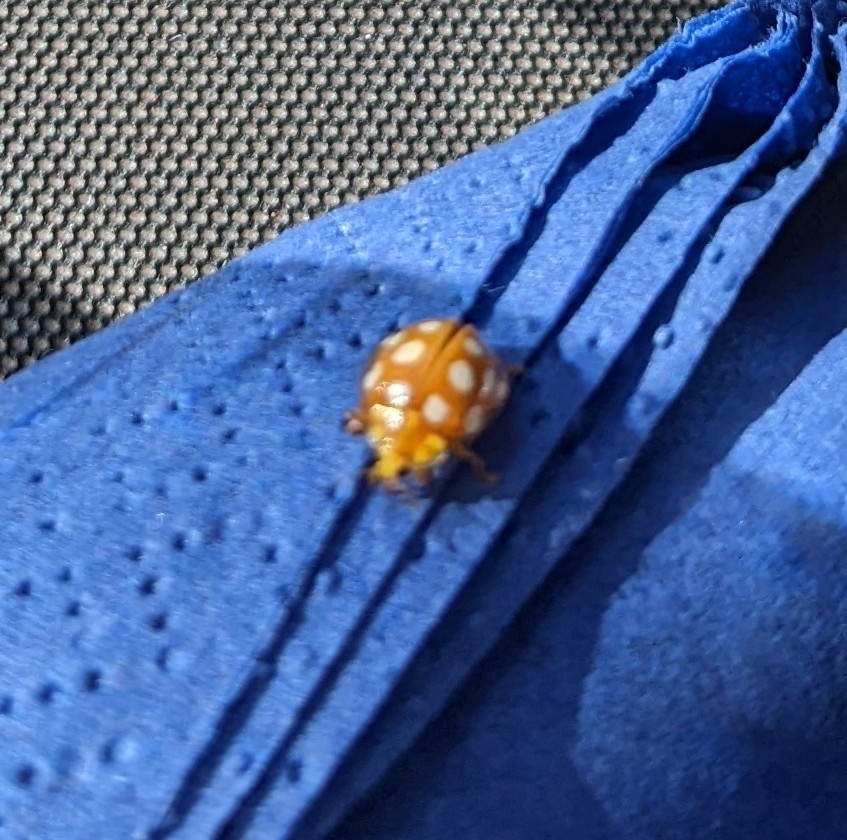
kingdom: Animalia
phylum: Arthropoda
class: Insecta
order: Coleoptera
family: Coccinellidae
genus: Halyzia
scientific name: Halyzia sedecimguttata
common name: Orange ladybird
